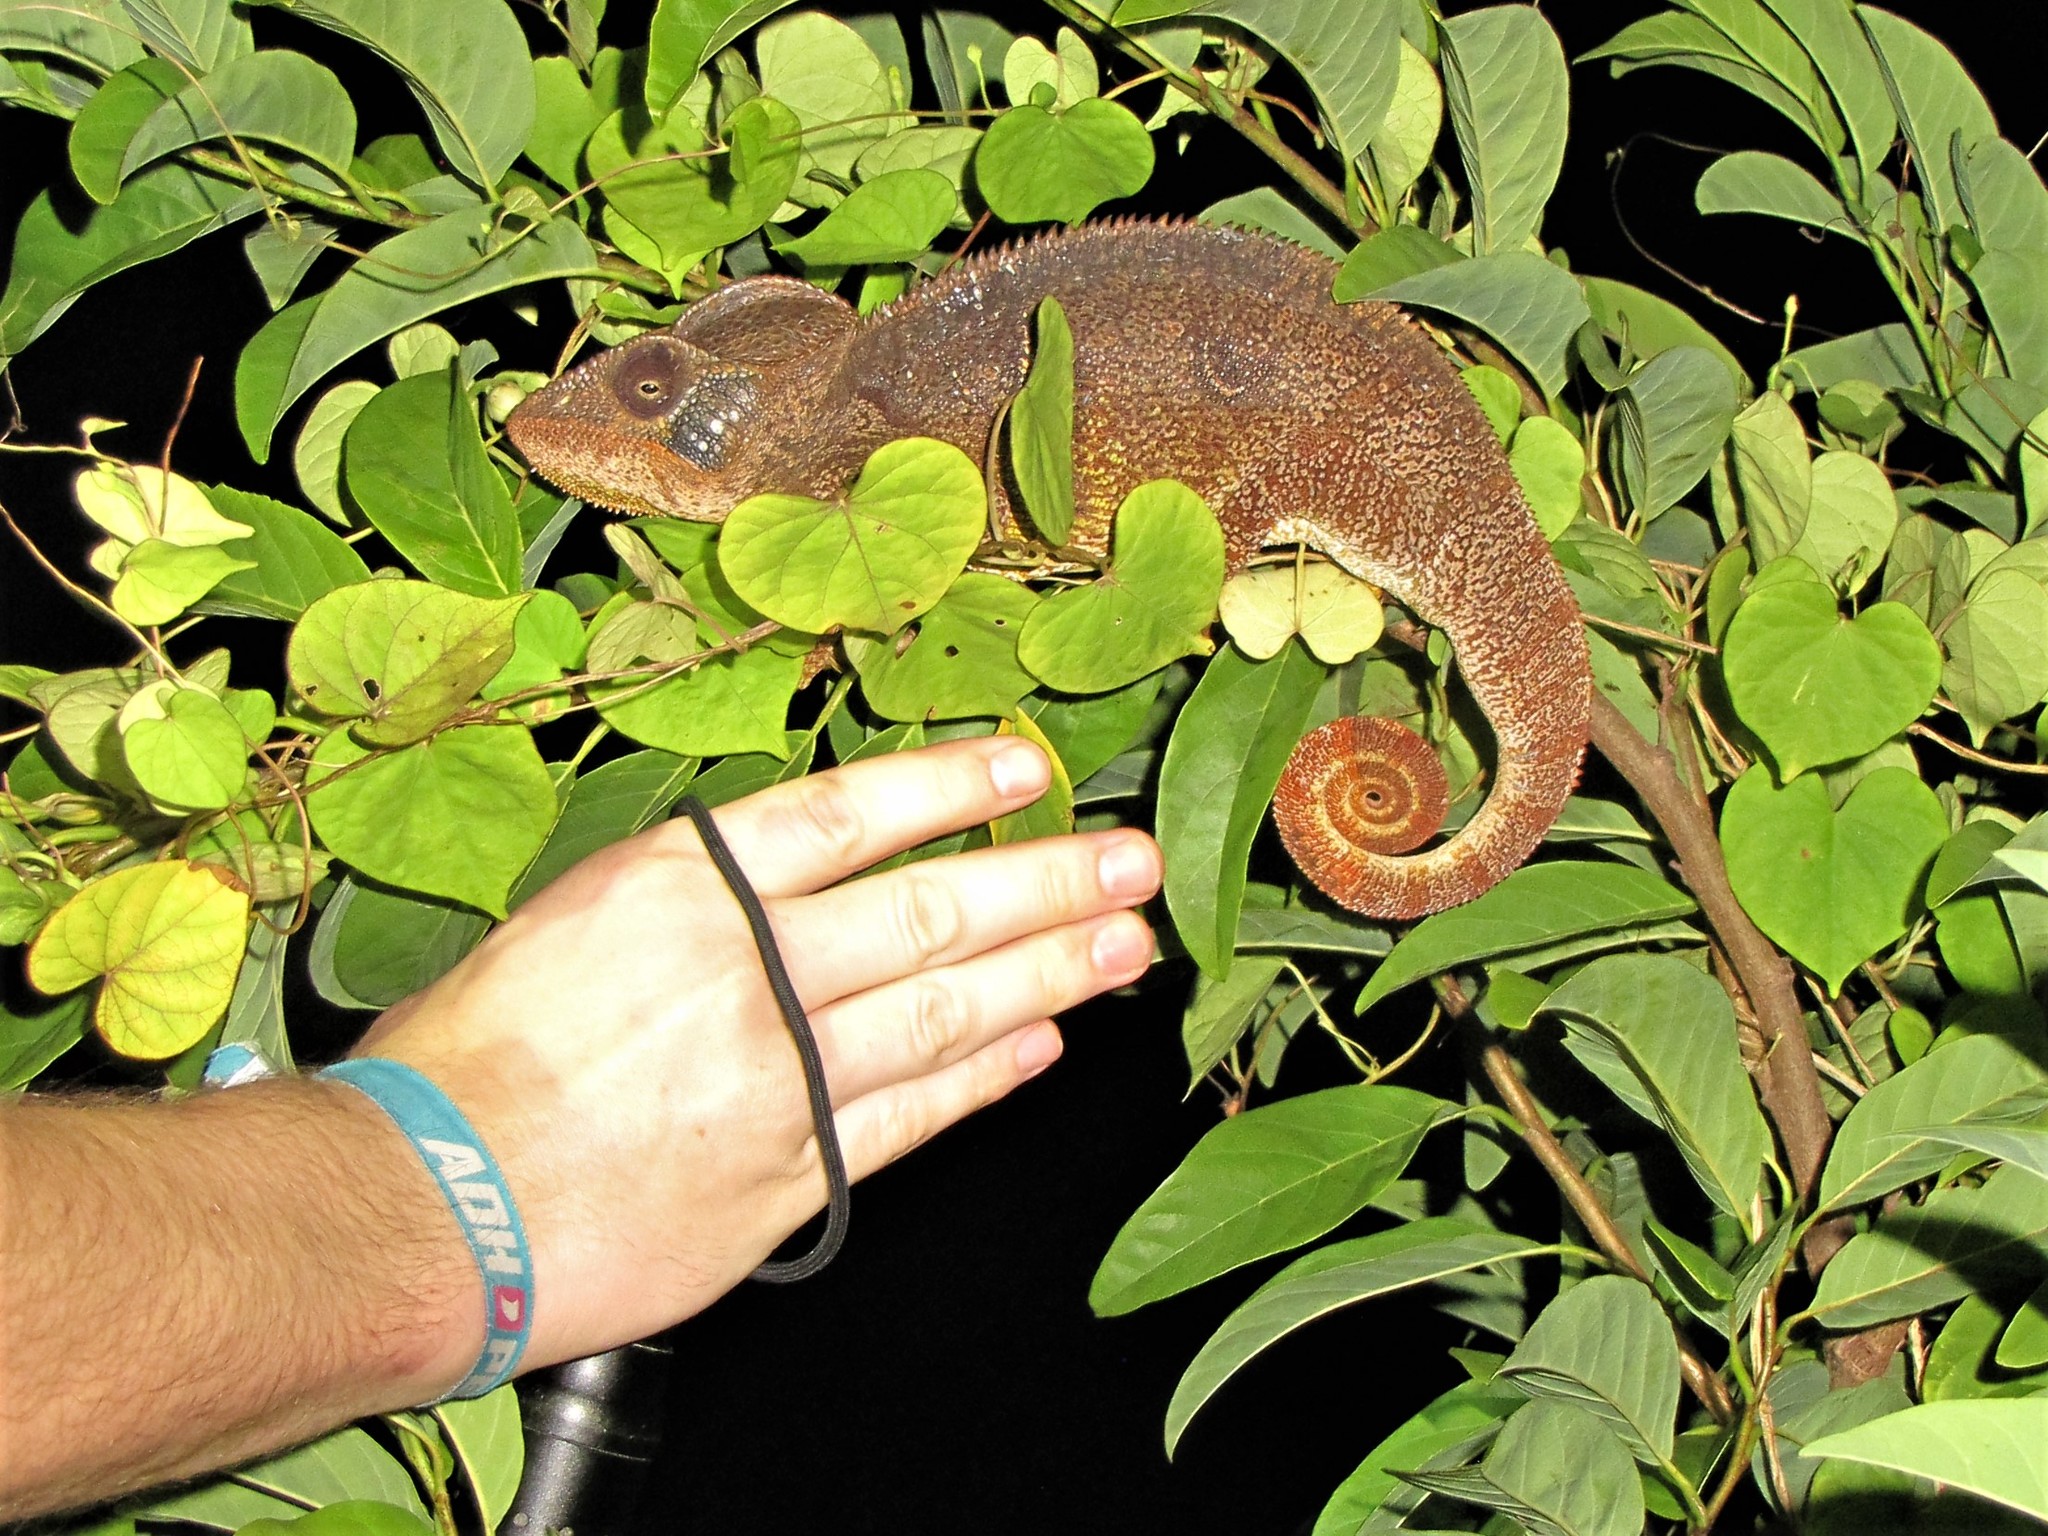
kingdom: Animalia
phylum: Chordata
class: Squamata
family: Chamaeleonidae
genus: Furcifer
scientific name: Furcifer oustaleti
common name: Oustalet's chameleon
